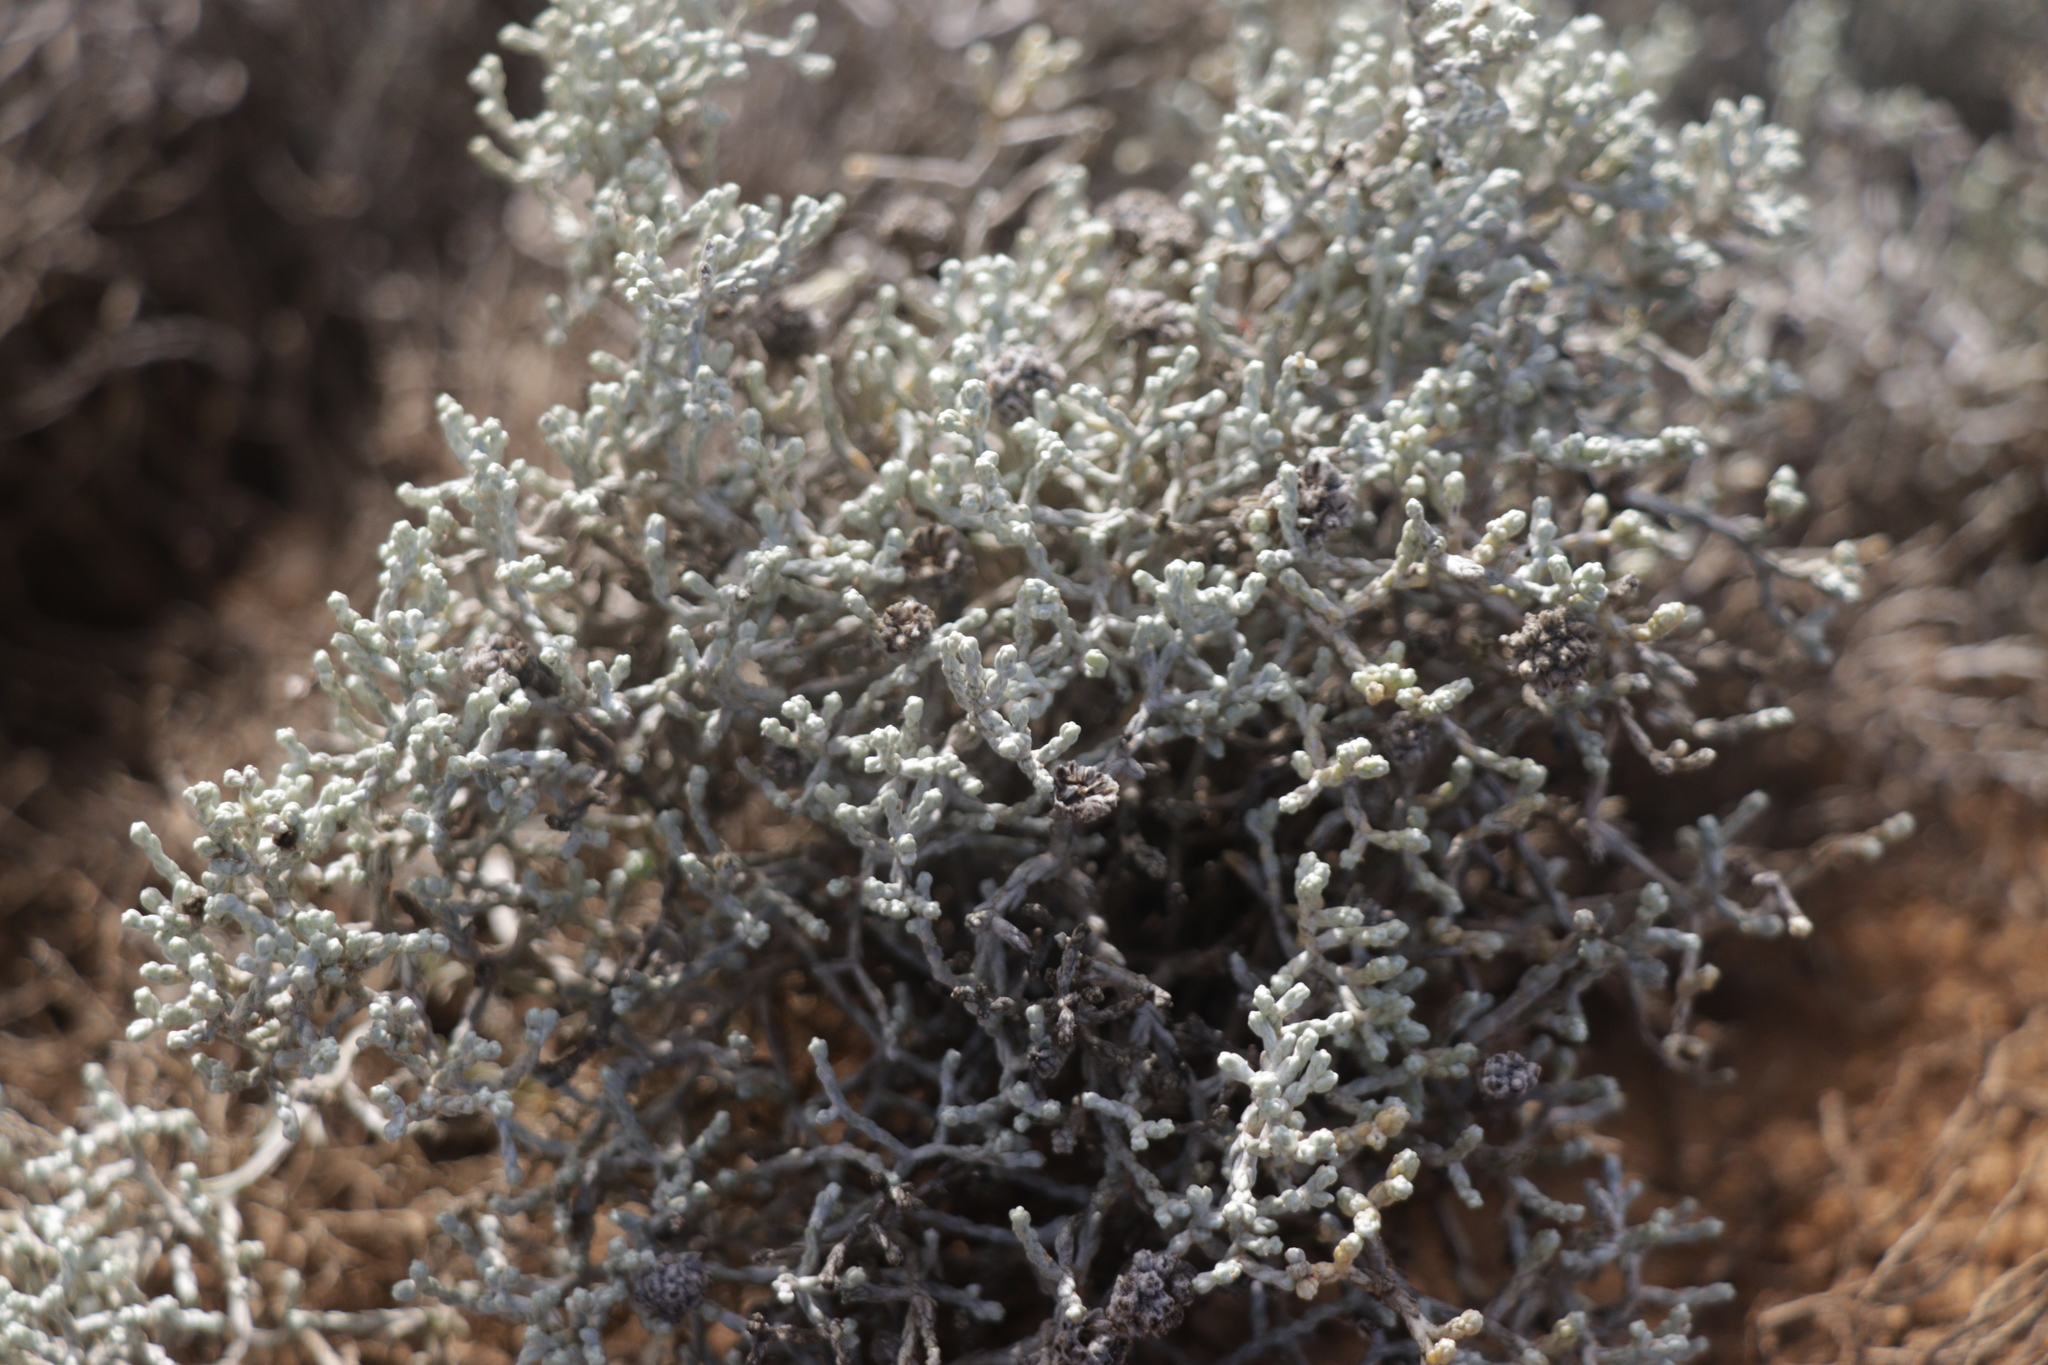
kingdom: Plantae
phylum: Tracheophyta
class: Magnoliopsida
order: Asterales
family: Asteraceae
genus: Calocephalus
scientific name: Calocephalus brownii
